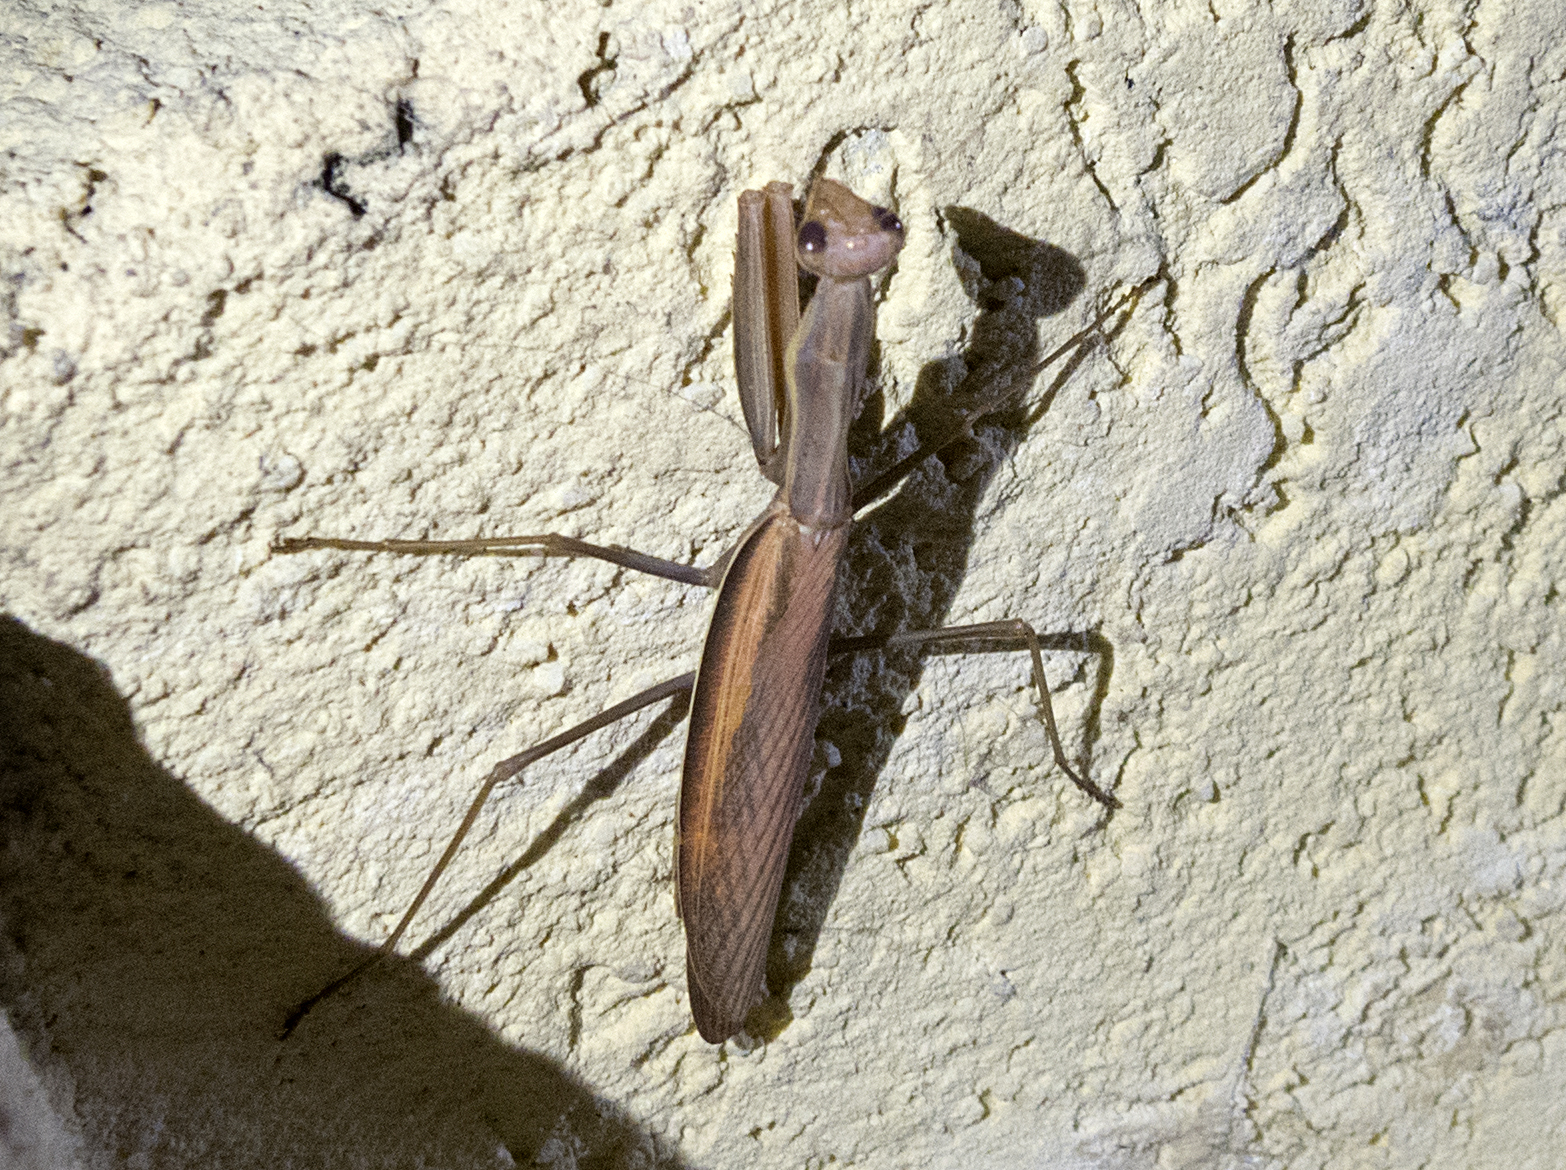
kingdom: Animalia
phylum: Arthropoda
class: Insecta
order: Mantodea
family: Mantidae
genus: Mantis
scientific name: Mantis religiosa
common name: Praying mantis
